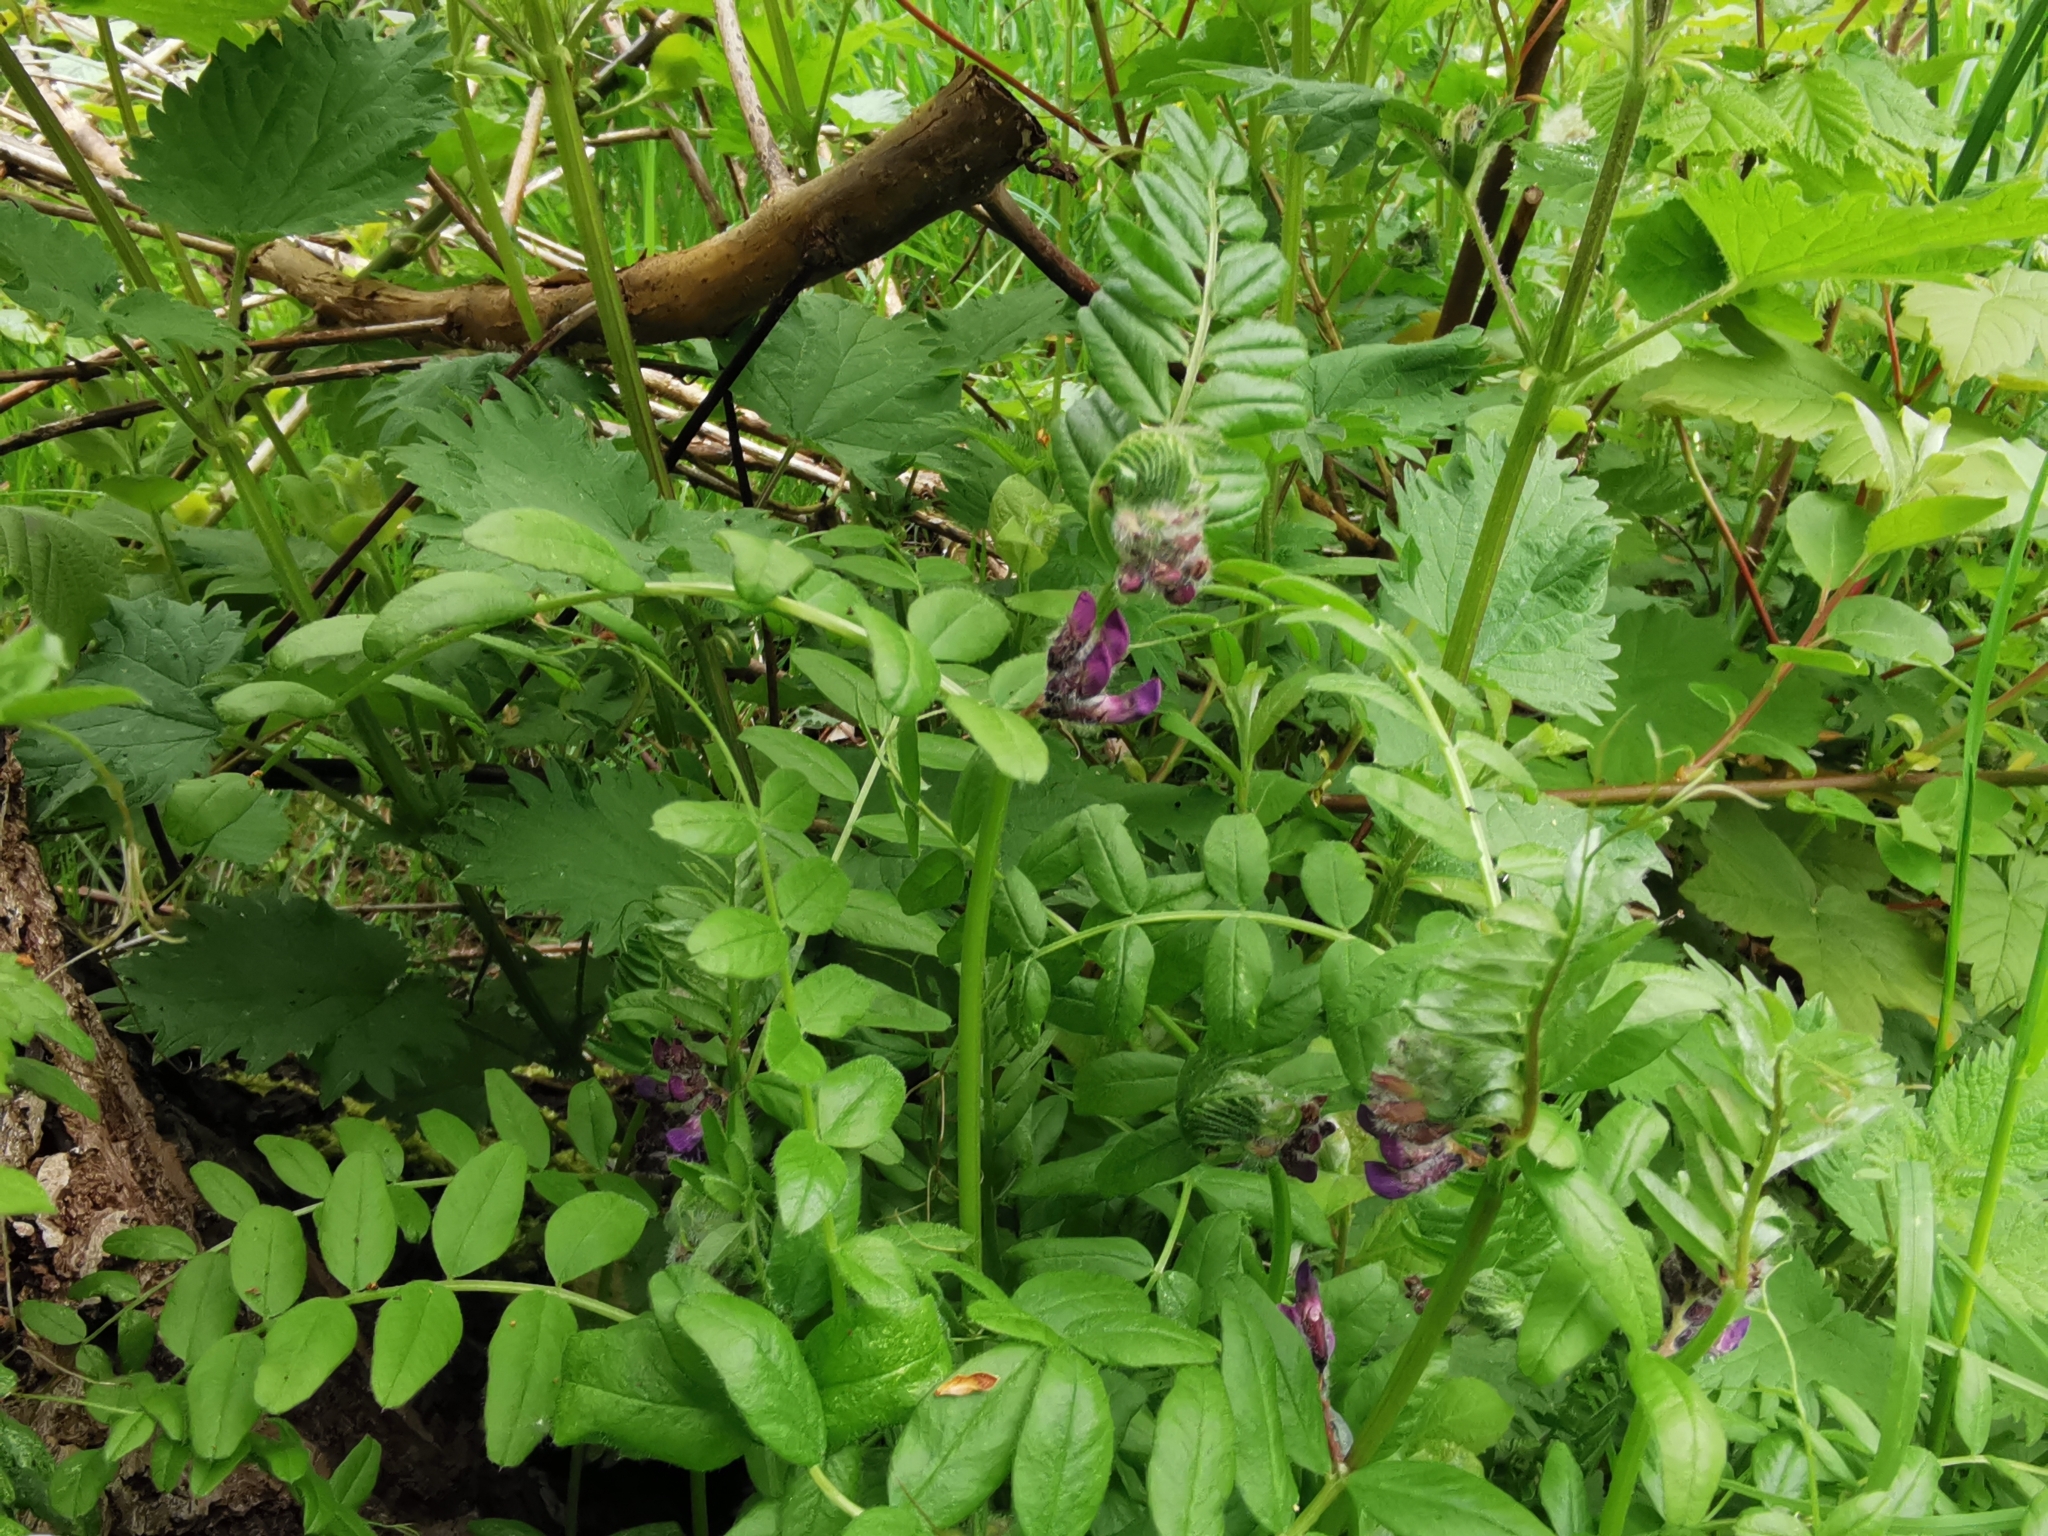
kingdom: Plantae
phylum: Tracheophyta
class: Magnoliopsida
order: Fabales
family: Fabaceae
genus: Vicia
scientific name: Vicia sepium
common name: Bush vetch
